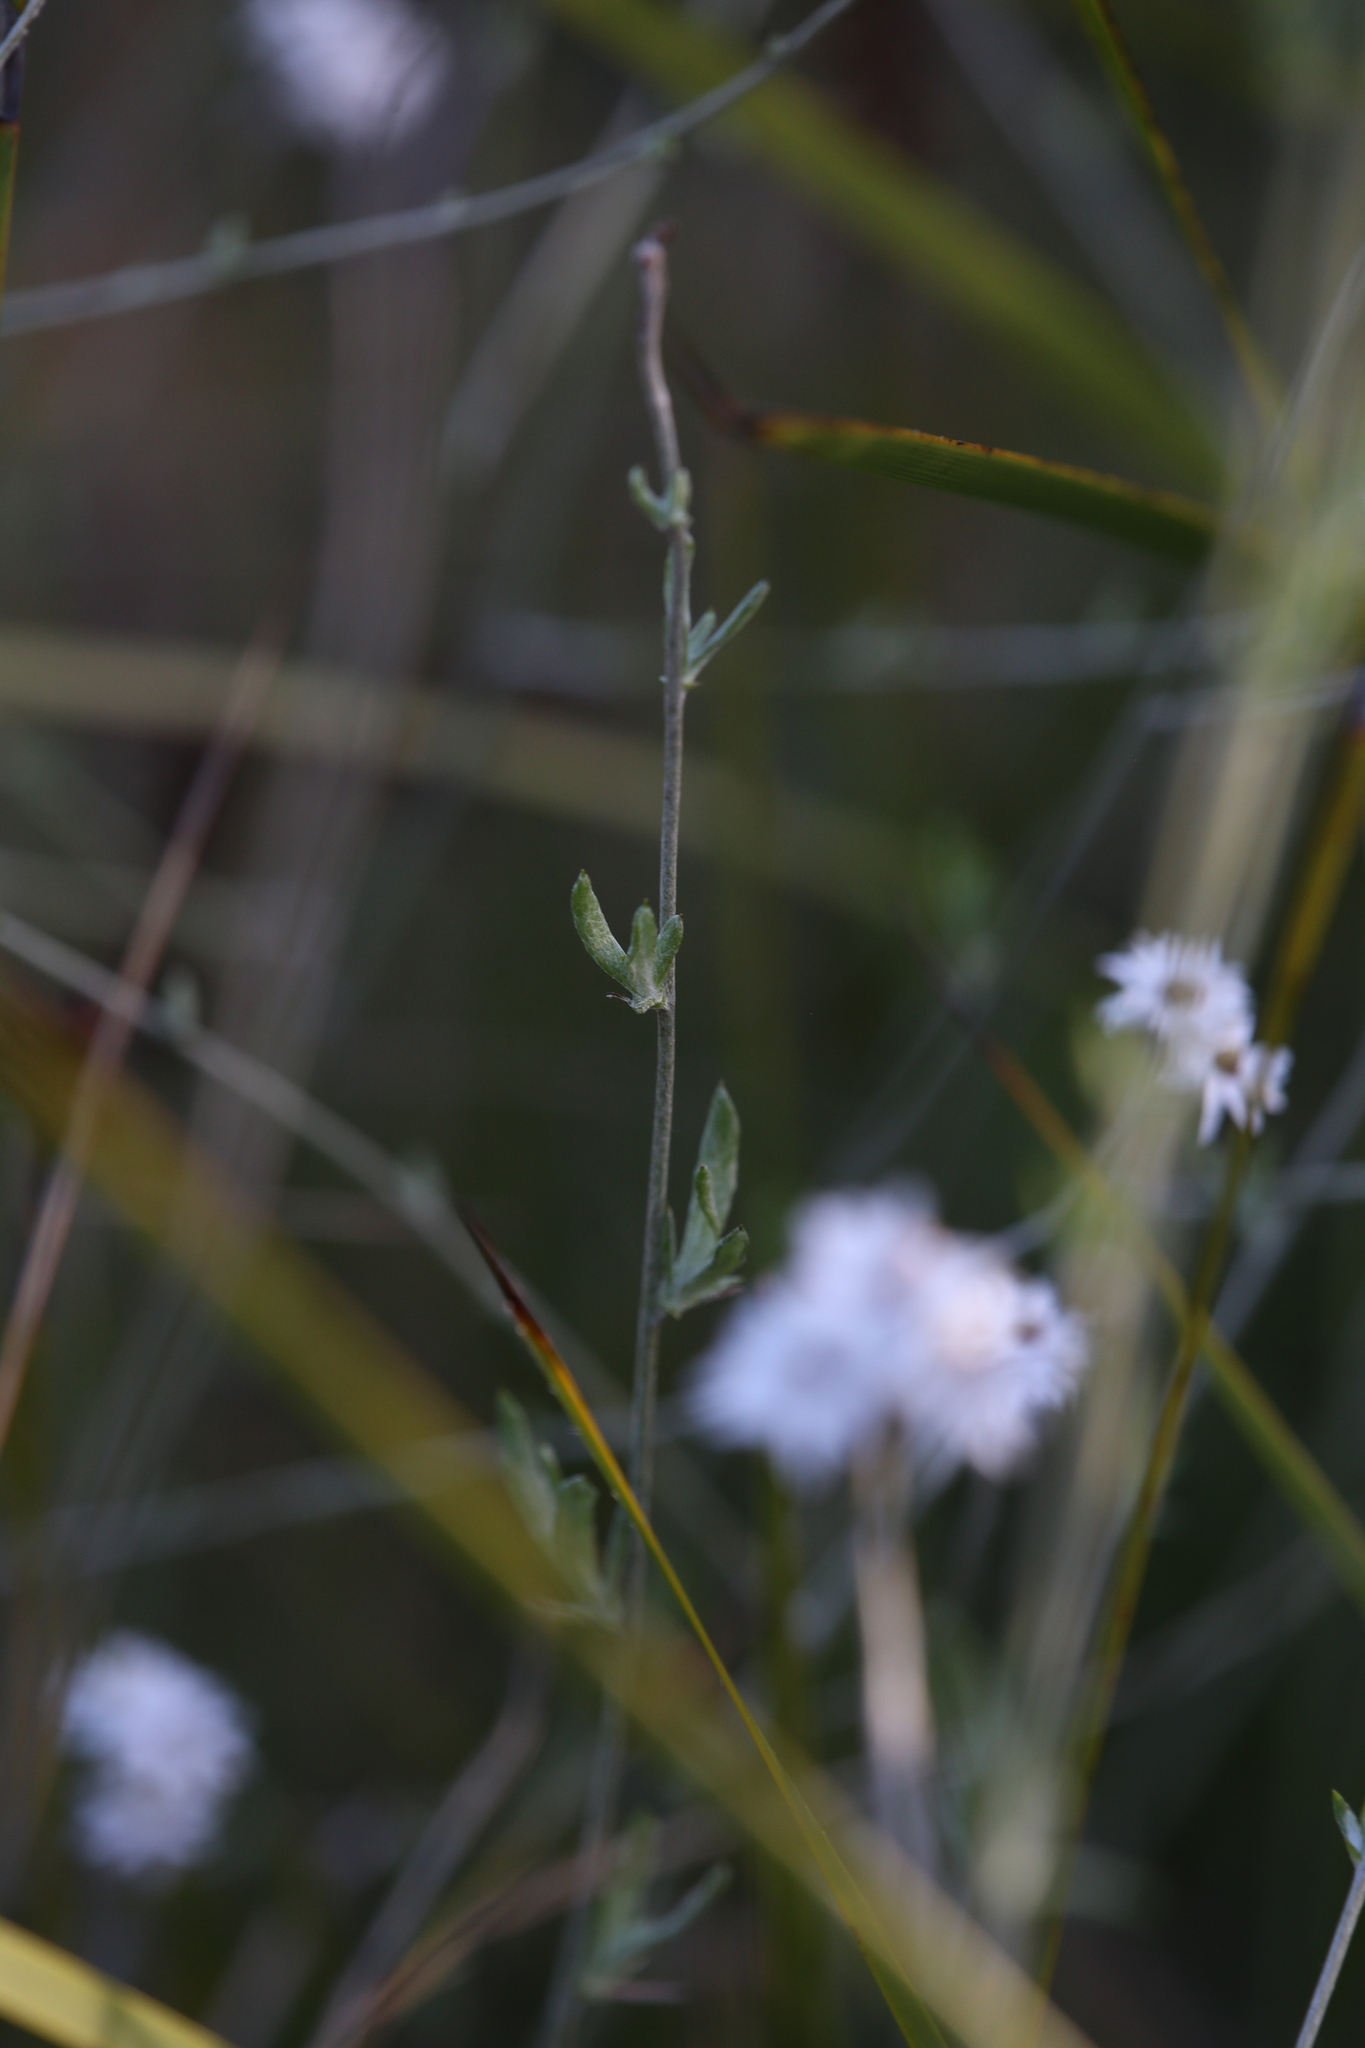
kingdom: Plantae
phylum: Tracheophyta
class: Magnoliopsida
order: Asterales
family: Asteraceae
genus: Pithocarpa
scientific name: Pithocarpa pulchella
